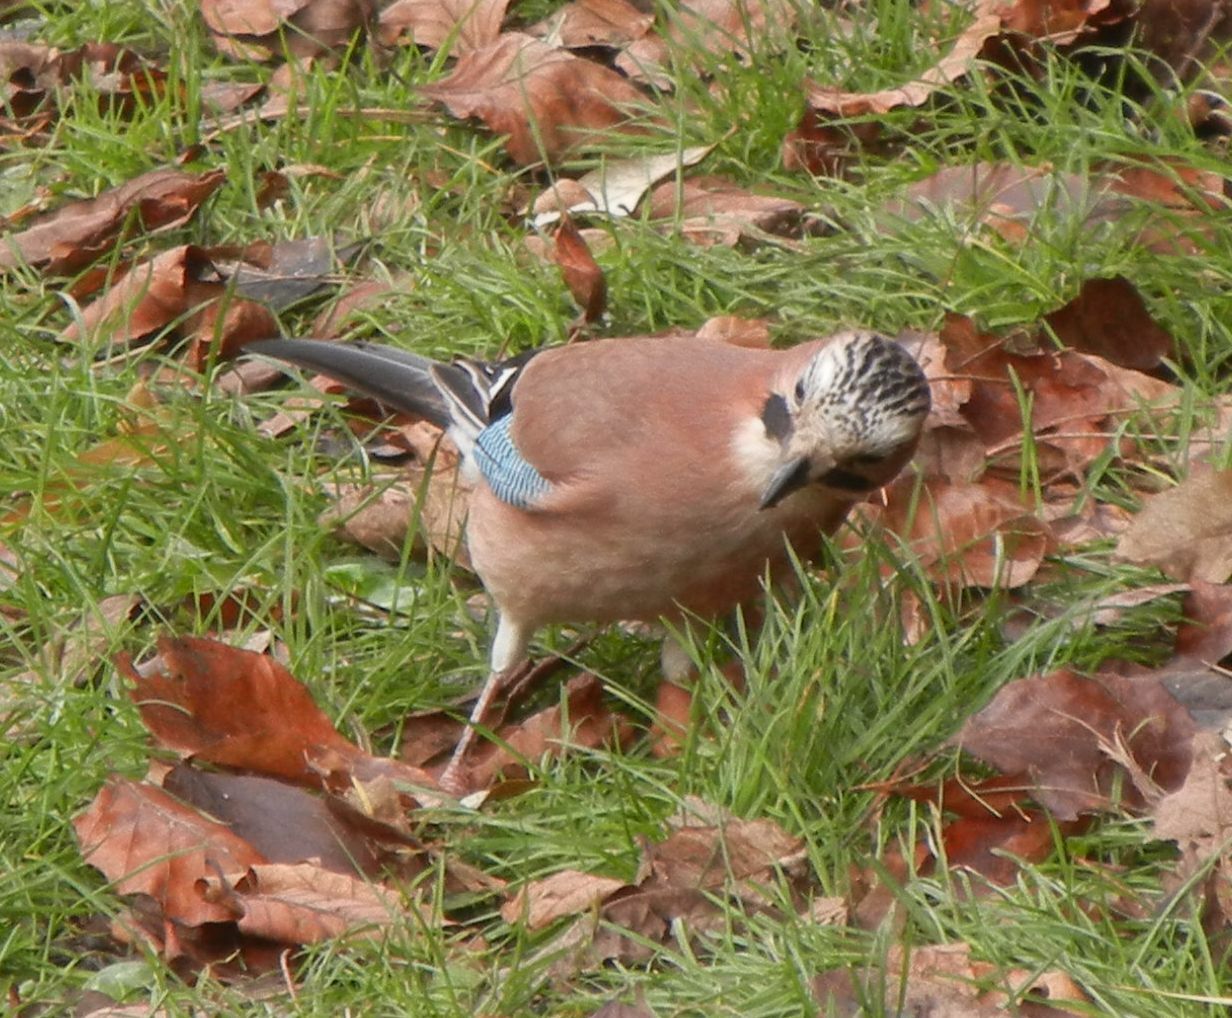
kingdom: Animalia
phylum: Chordata
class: Aves
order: Passeriformes
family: Corvidae
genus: Garrulus
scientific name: Garrulus glandarius
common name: Eurasian jay
